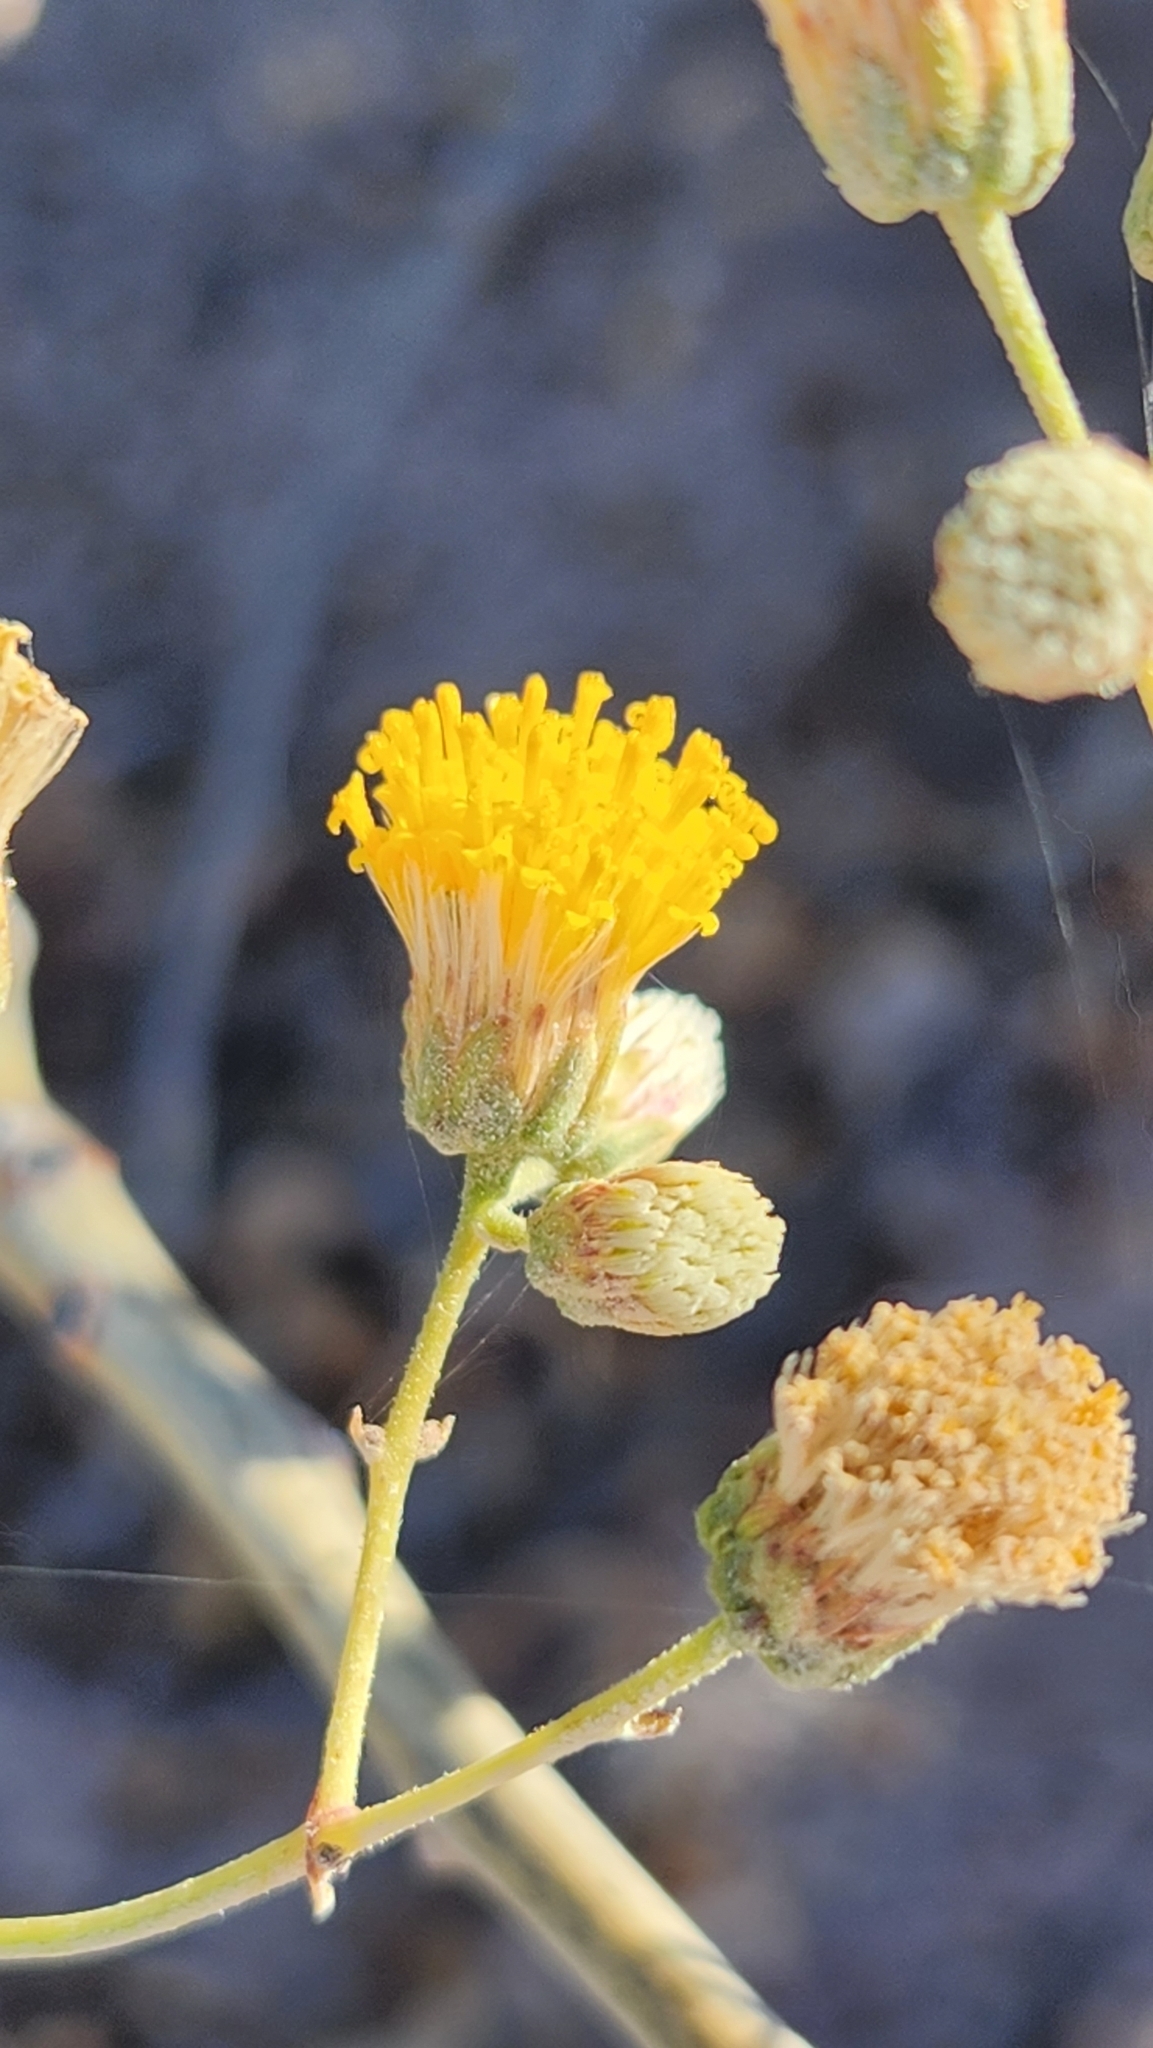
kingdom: Plantae
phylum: Tracheophyta
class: Magnoliopsida
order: Asterales
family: Asteraceae
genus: Bebbia
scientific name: Bebbia atriplicifolia
